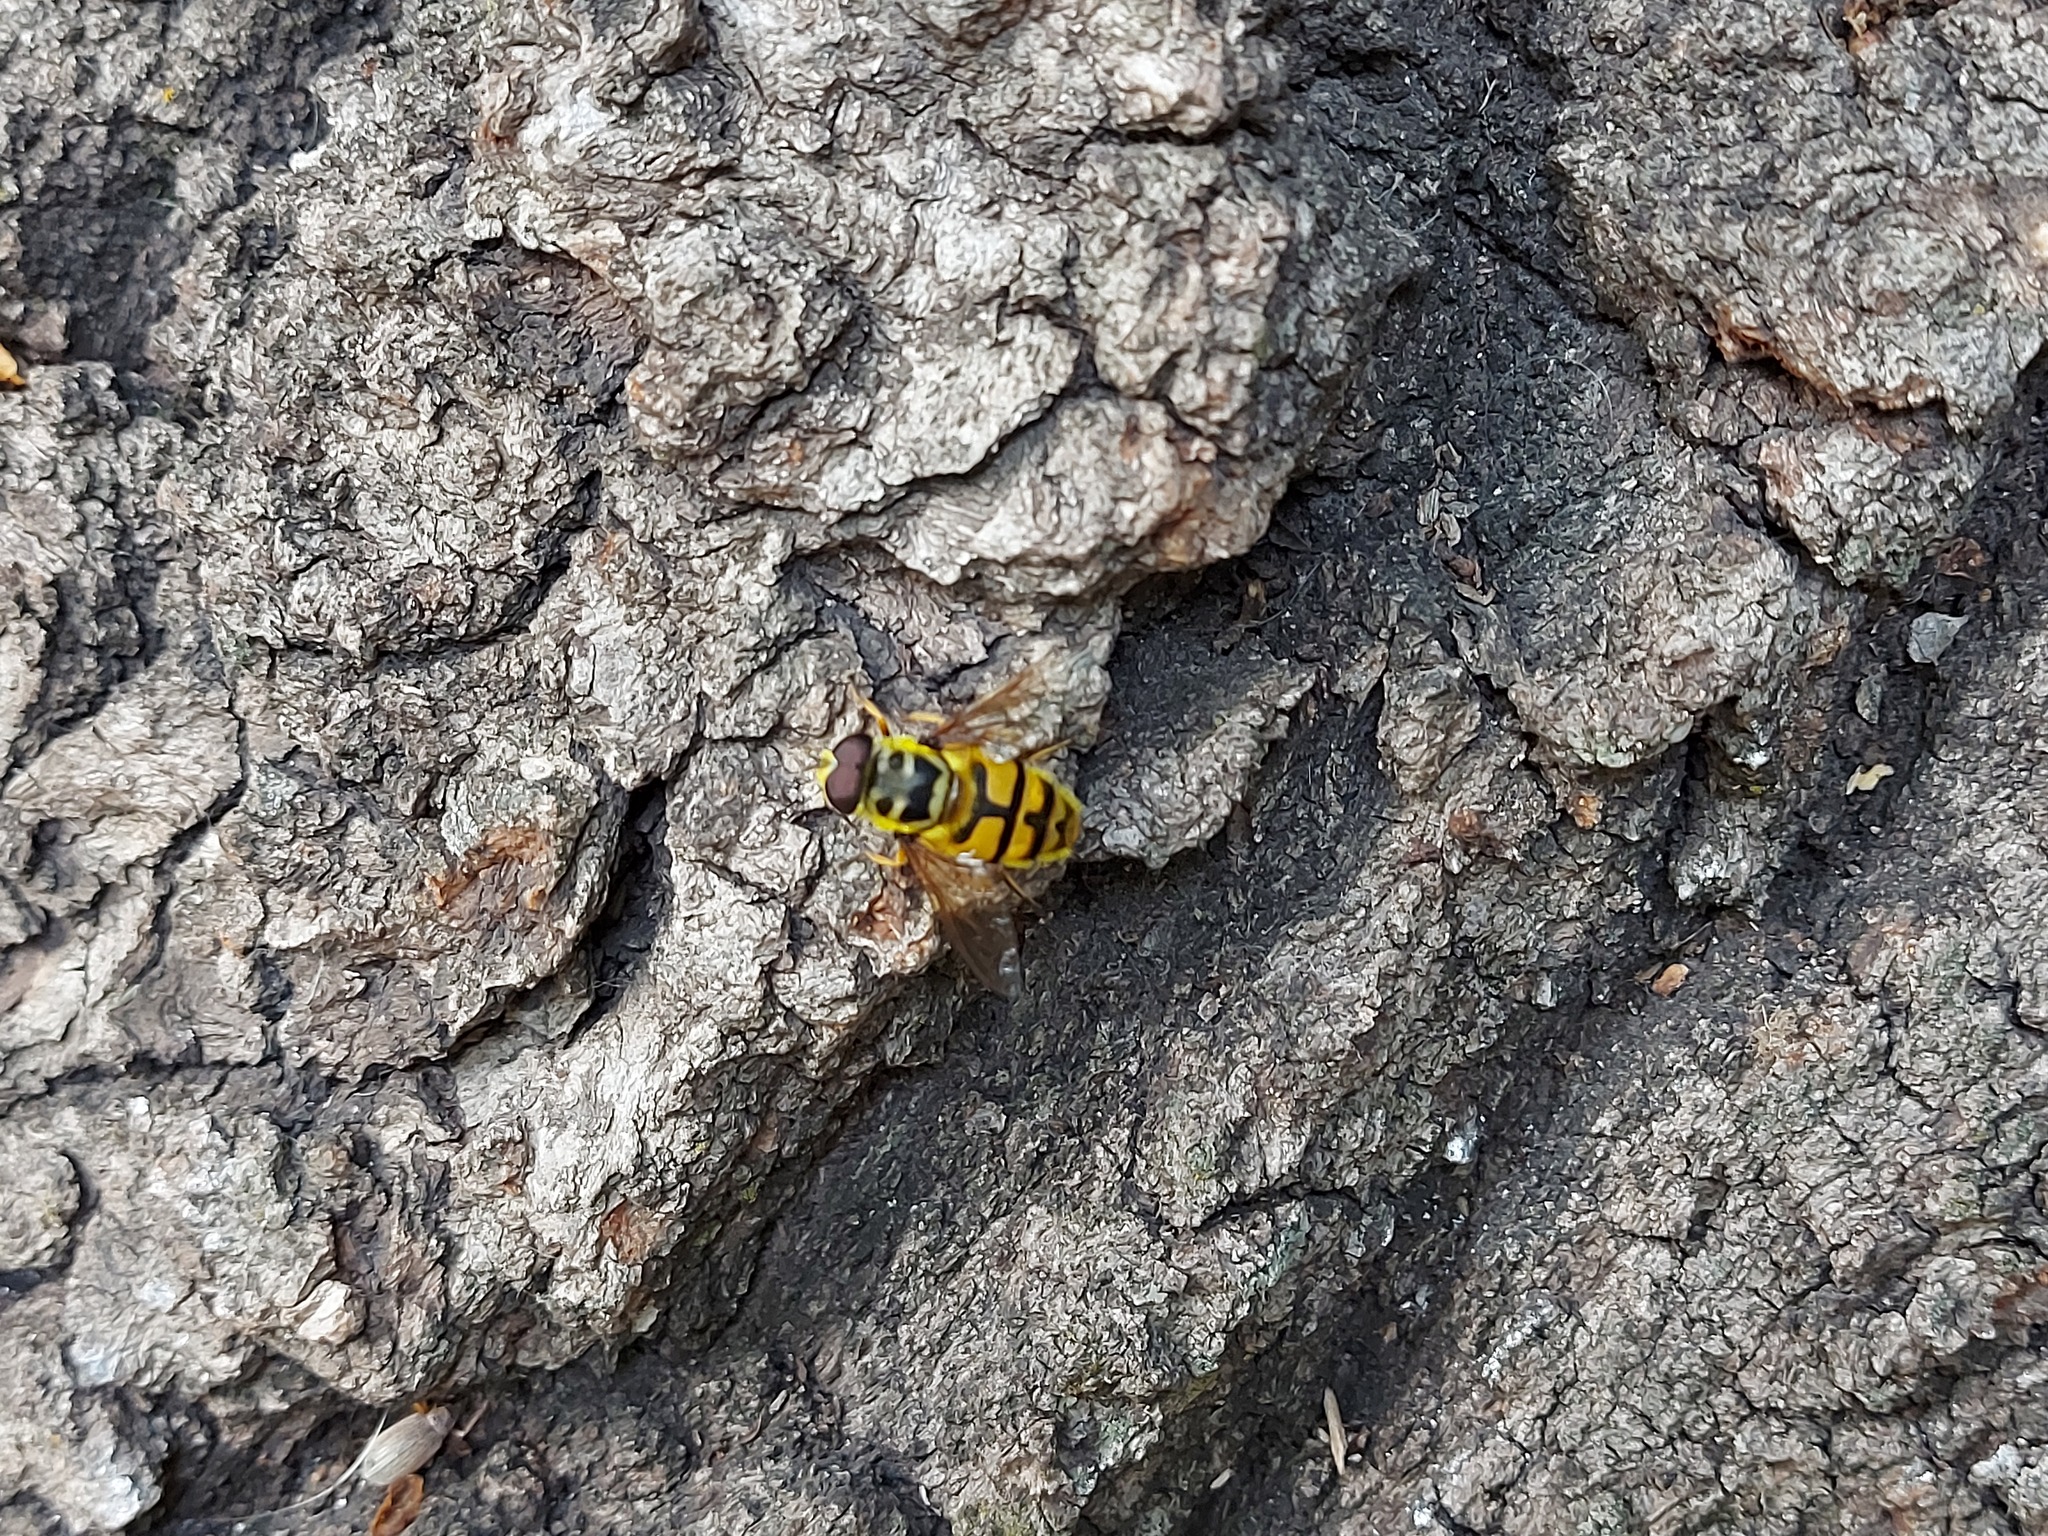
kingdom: Animalia
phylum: Arthropoda
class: Insecta
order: Diptera
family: Syrphidae
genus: Myathropa
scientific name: Myathropa florea
